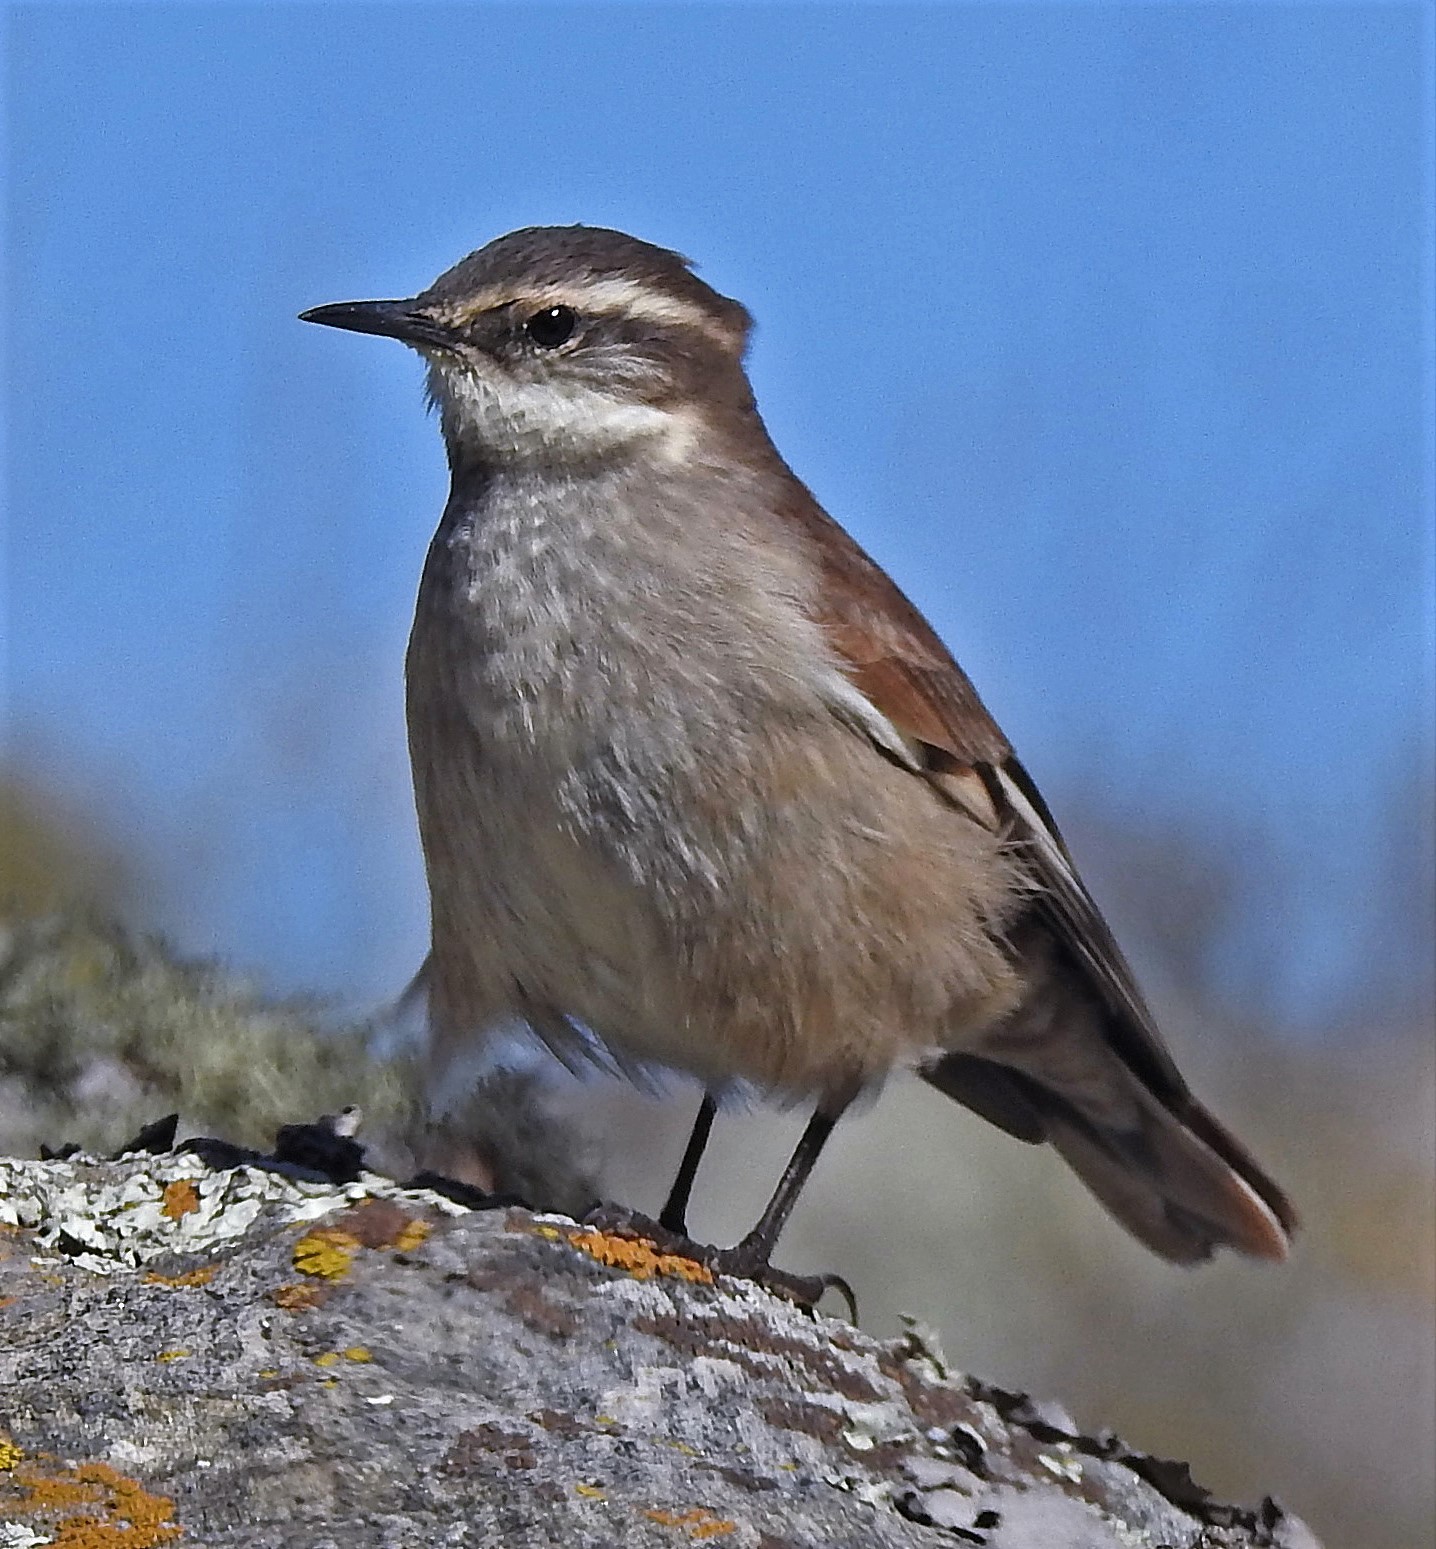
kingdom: Animalia
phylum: Chordata
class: Aves
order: Passeriformes
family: Furnariidae
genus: Cinclodes
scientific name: Cinclodes fuscus
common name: Buff-winged cinclodes
